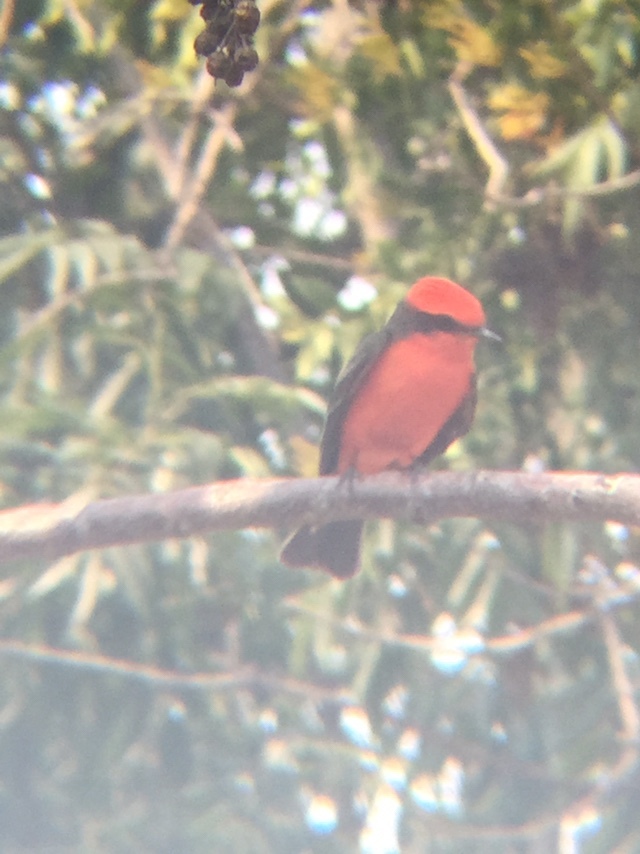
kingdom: Animalia
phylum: Chordata
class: Aves
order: Passeriformes
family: Tyrannidae
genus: Pyrocephalus
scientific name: Pyrocephalus rubinus
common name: Vermilion flycatcher
